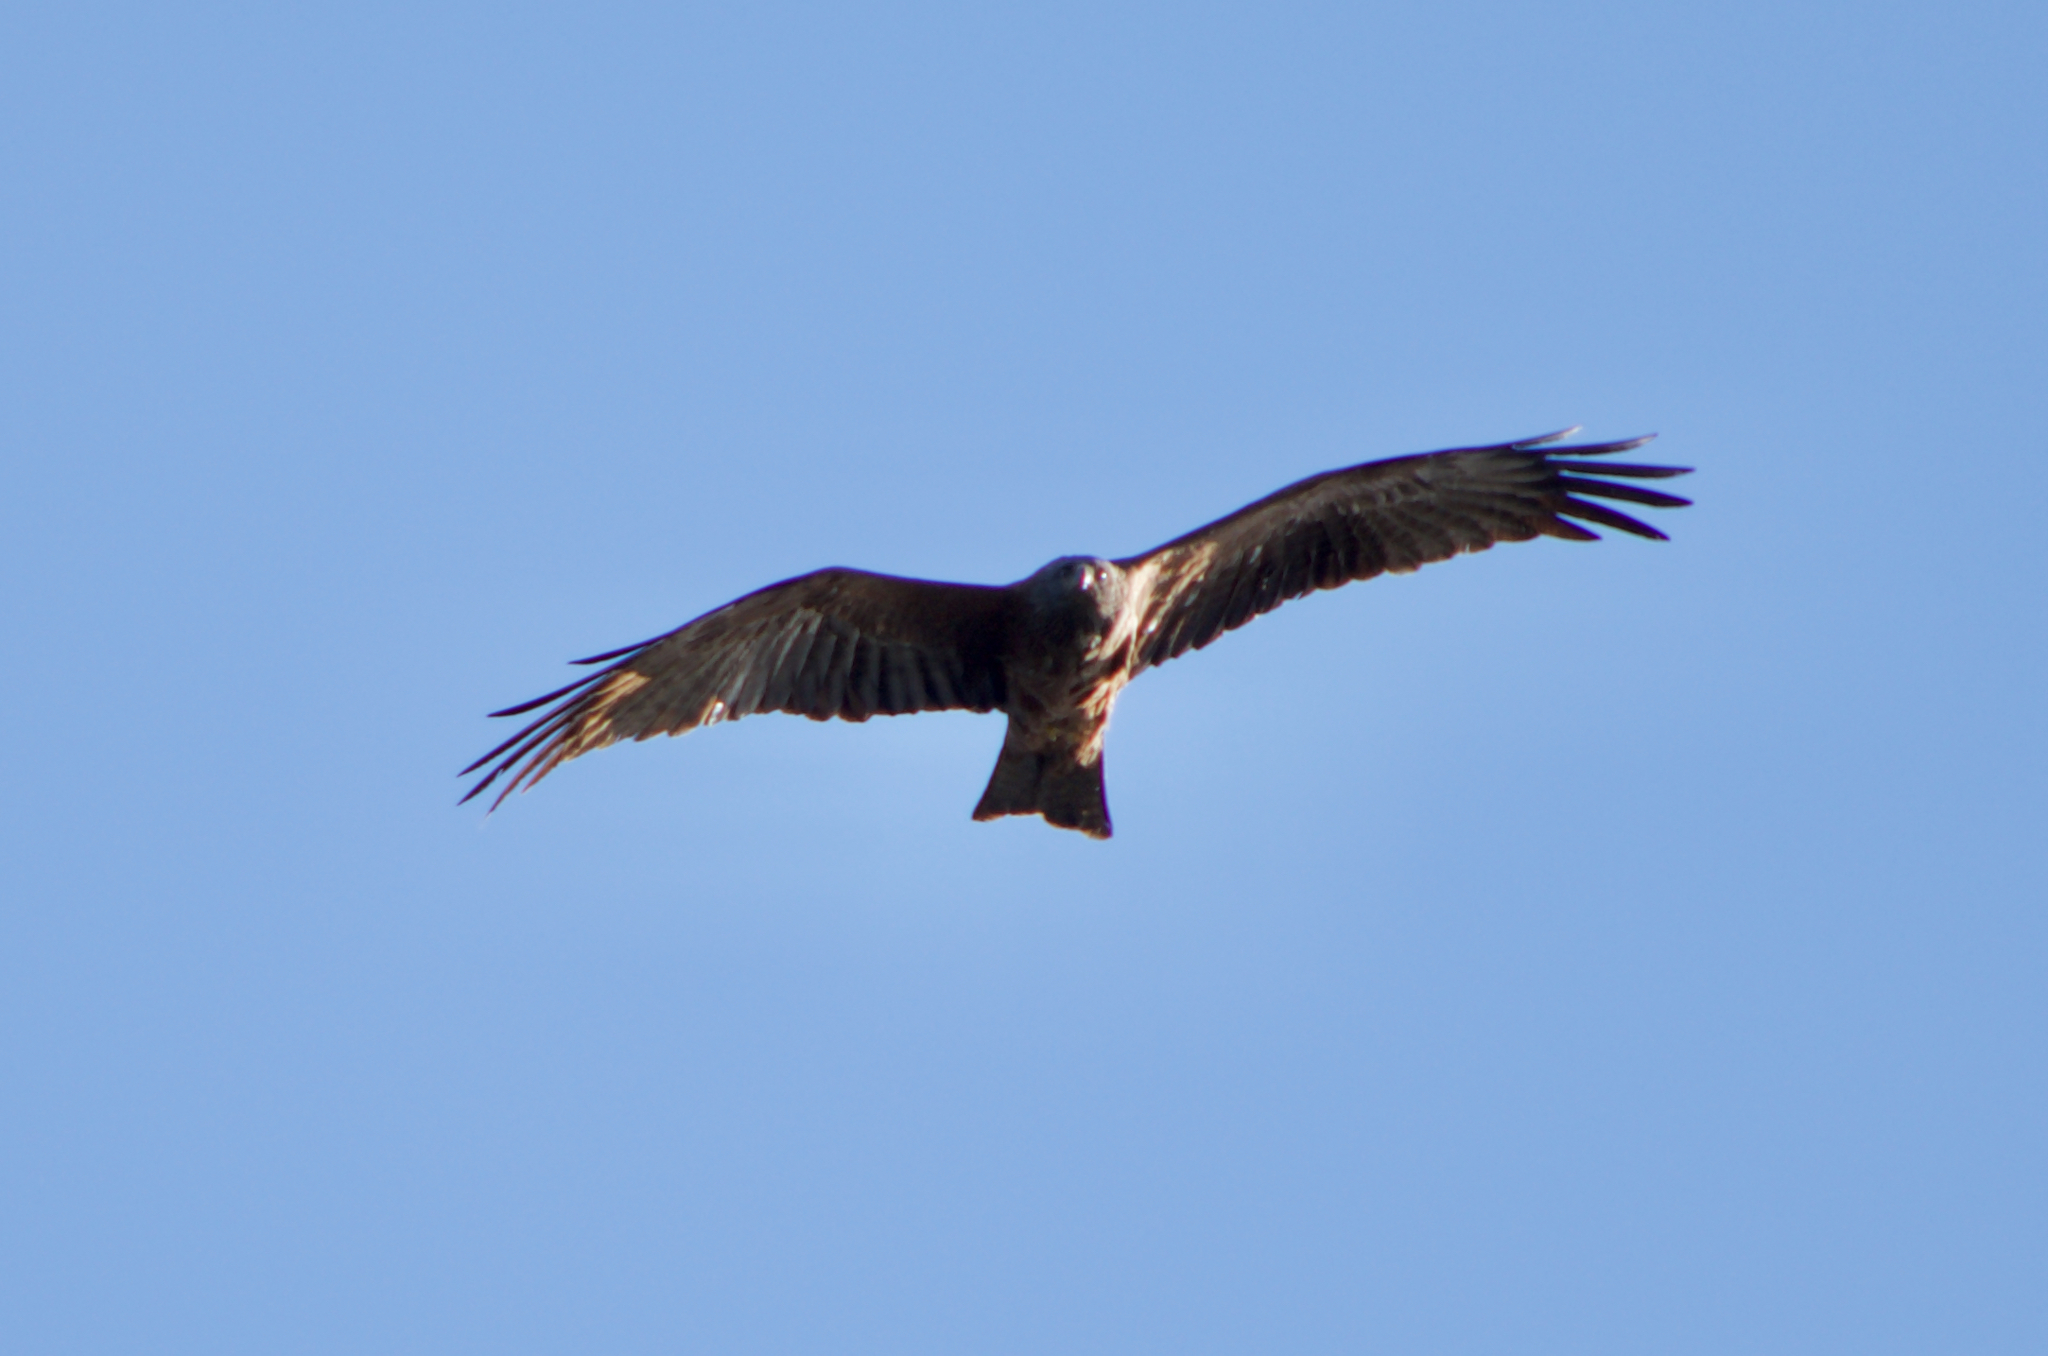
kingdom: Animalia
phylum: Chordata
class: Aves
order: Accipitriformes
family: Accipitridae
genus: Milvus
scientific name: Milvus migrans
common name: Black kite
